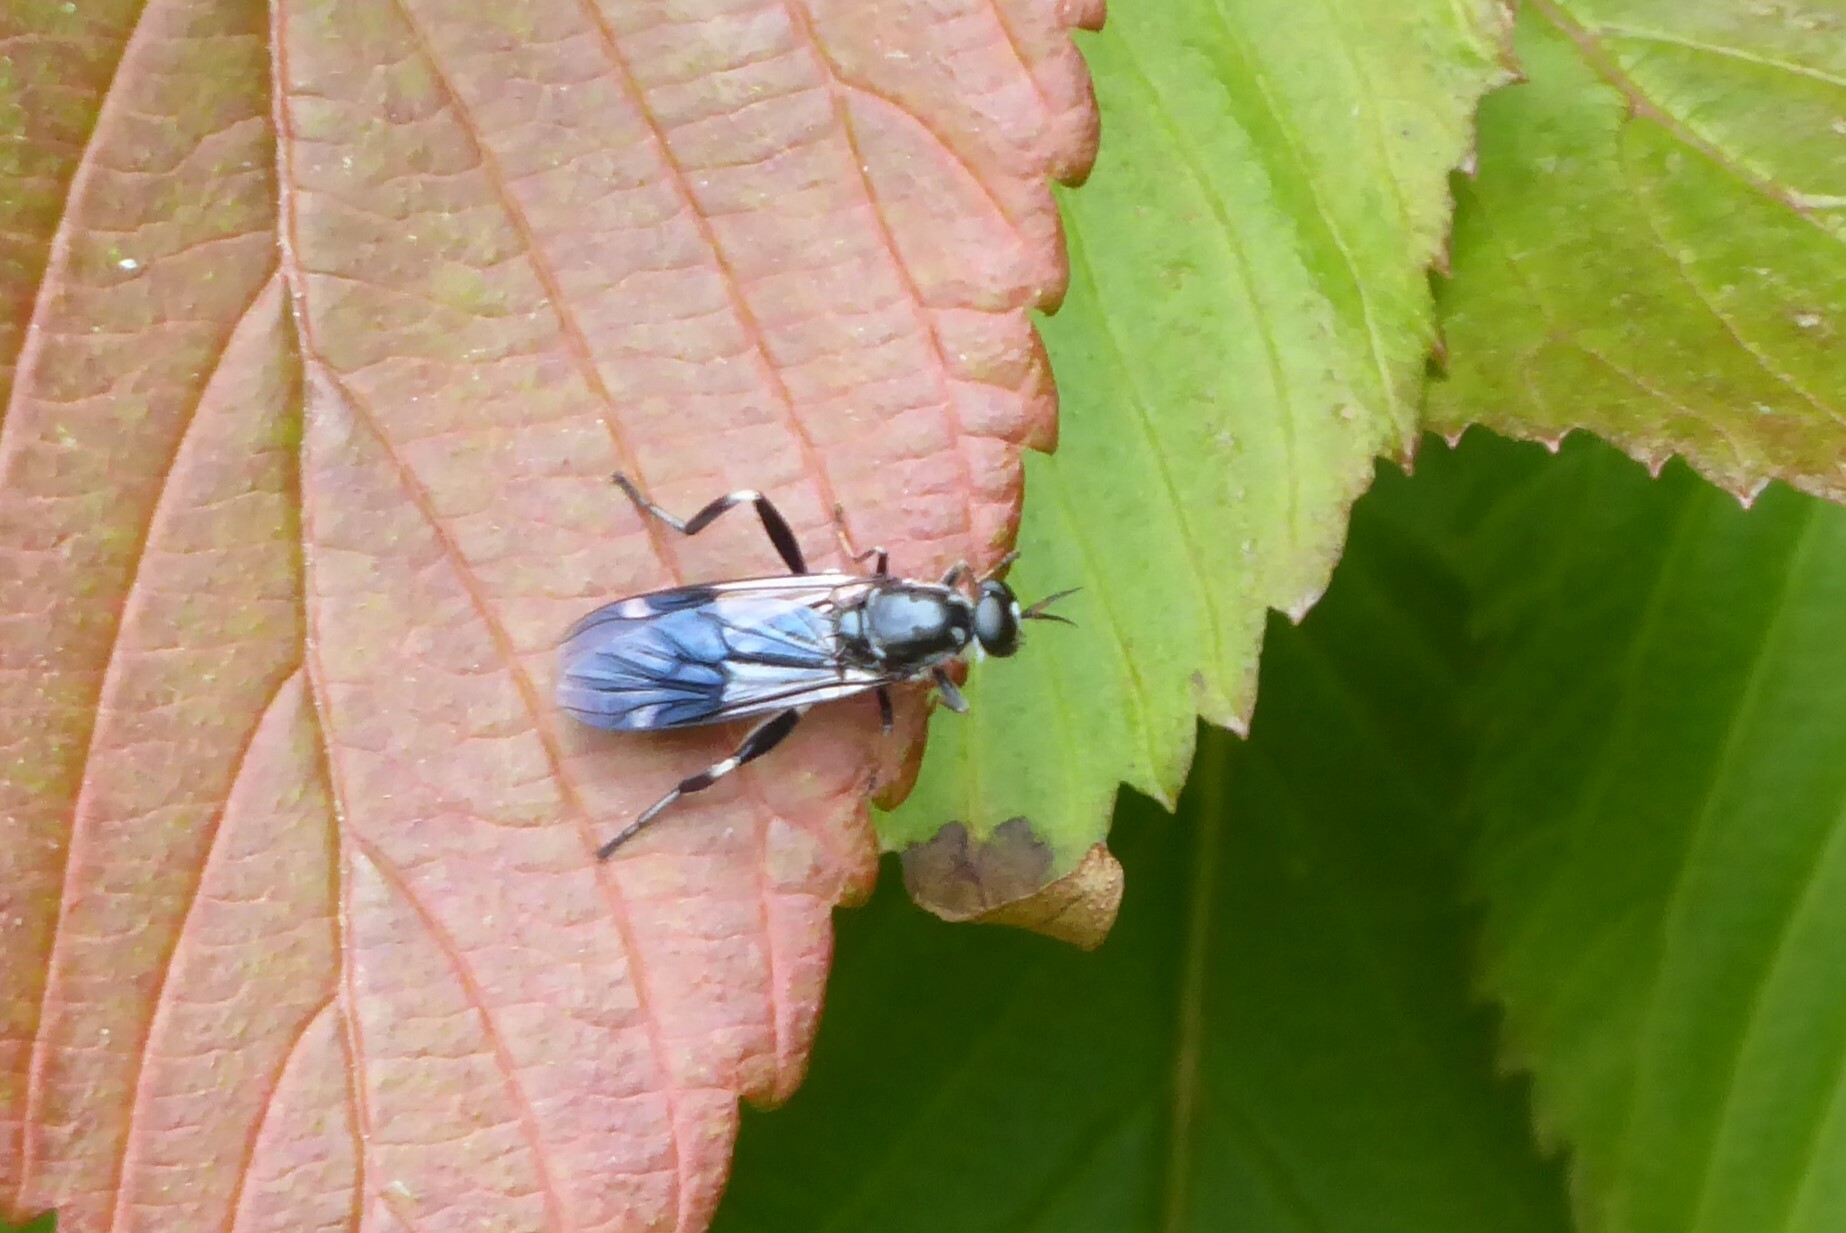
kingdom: Animalia
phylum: Arthropoda
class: Insecta
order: Diptera
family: Stratiomyidae
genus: Exaireta
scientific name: Exaireta spinigera
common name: Blue soldier fly
